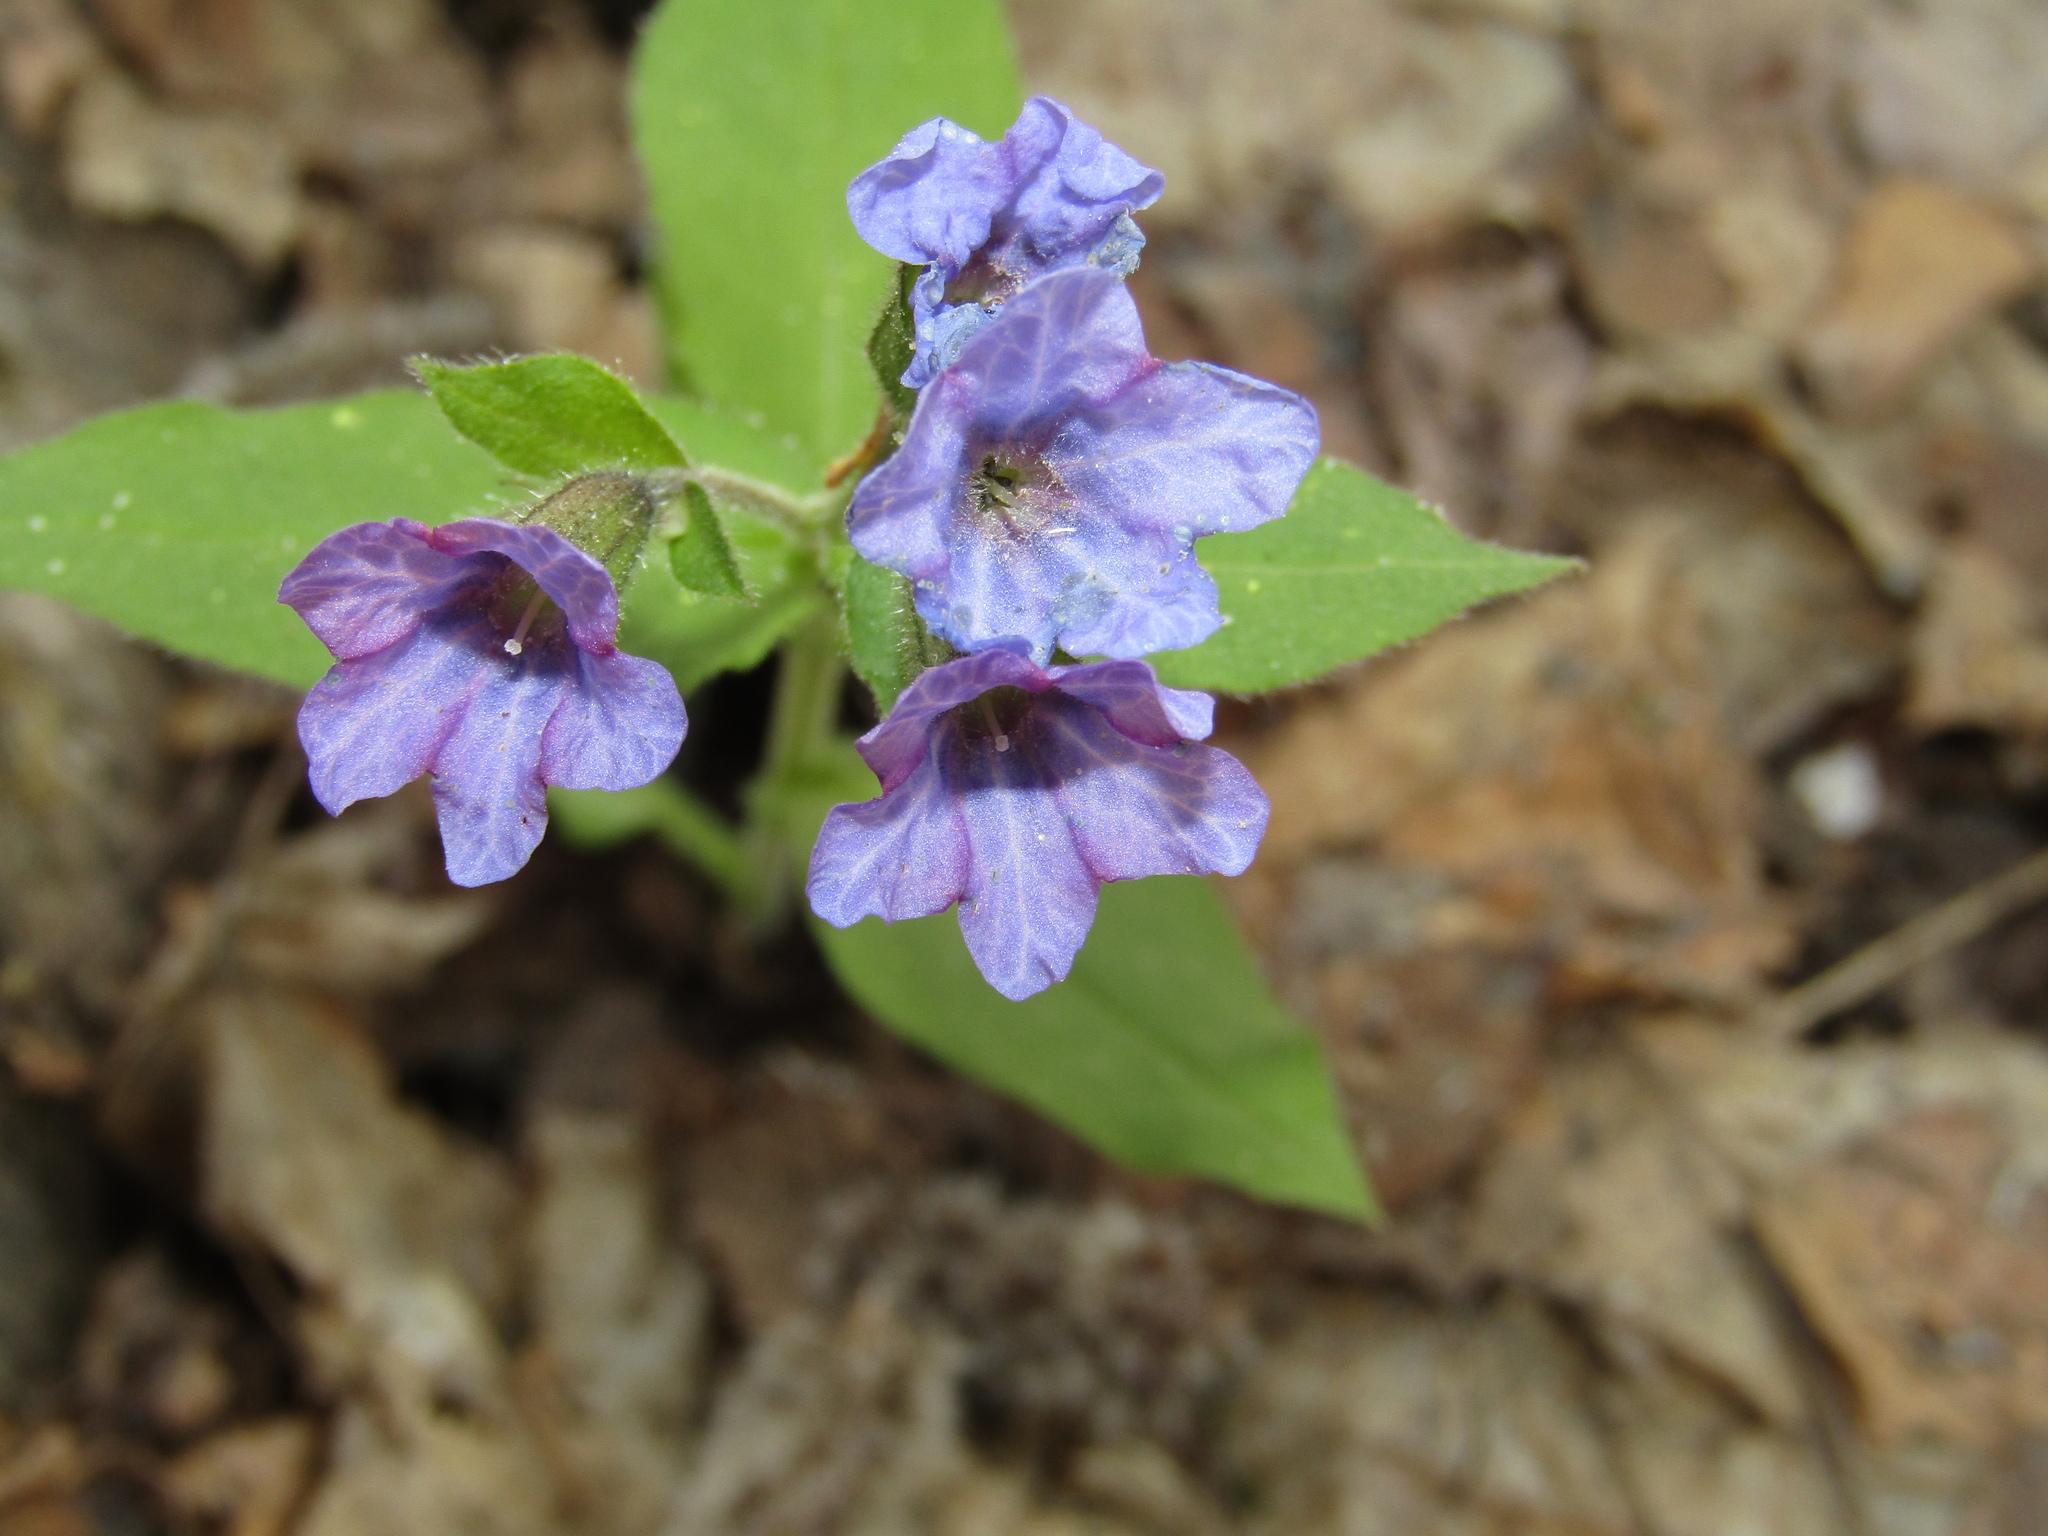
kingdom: Plantae
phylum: Tracheophyta
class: Magnoliopsida
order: Boraginales
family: Boraginaceae
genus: Pulmonaria
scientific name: Pulmonaria obscura
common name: Suffolk lungwort
